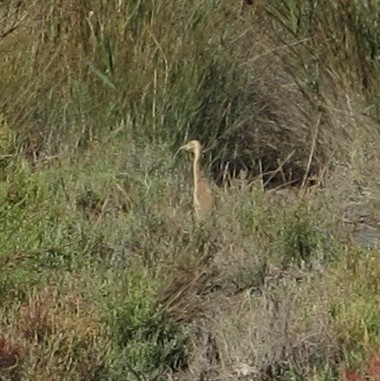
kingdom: Animalia
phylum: Chordata
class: Aves
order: Pelecaniformes
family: Ardeidae
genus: Ardeola
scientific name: Ardeola ralloides
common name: Squacco heron
